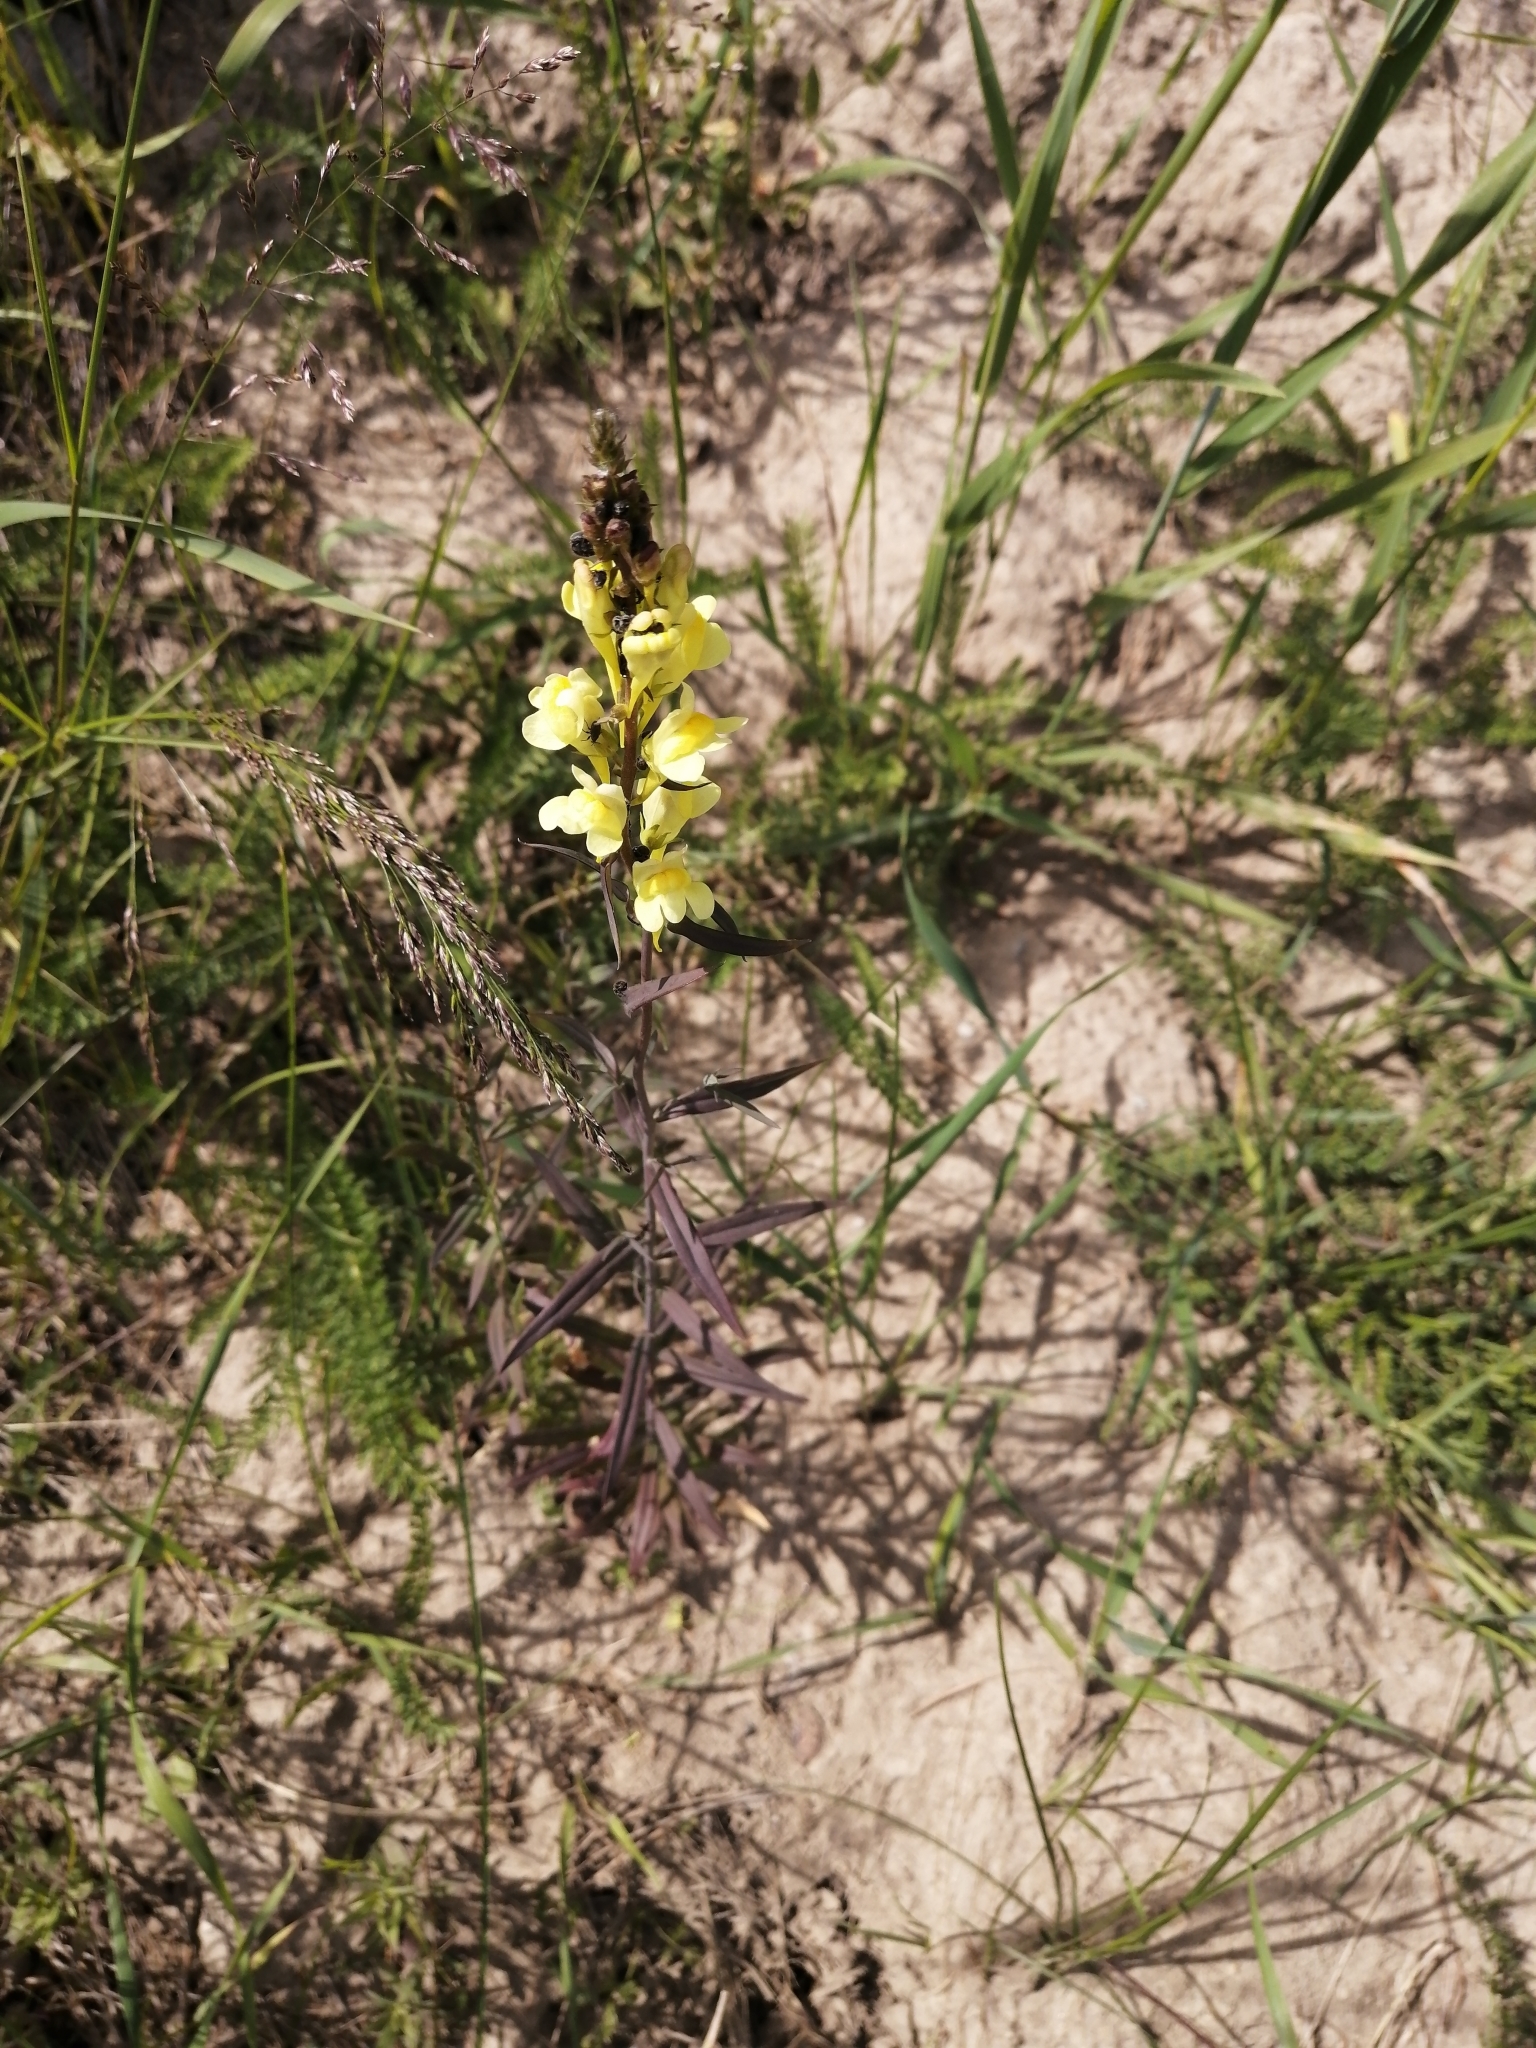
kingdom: Plantae
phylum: Tracheophyta
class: Magnoliopsida
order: Lamiales
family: Plantaginaceae
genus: Linaria
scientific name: Linaria vulgaris
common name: Butter and eggs
